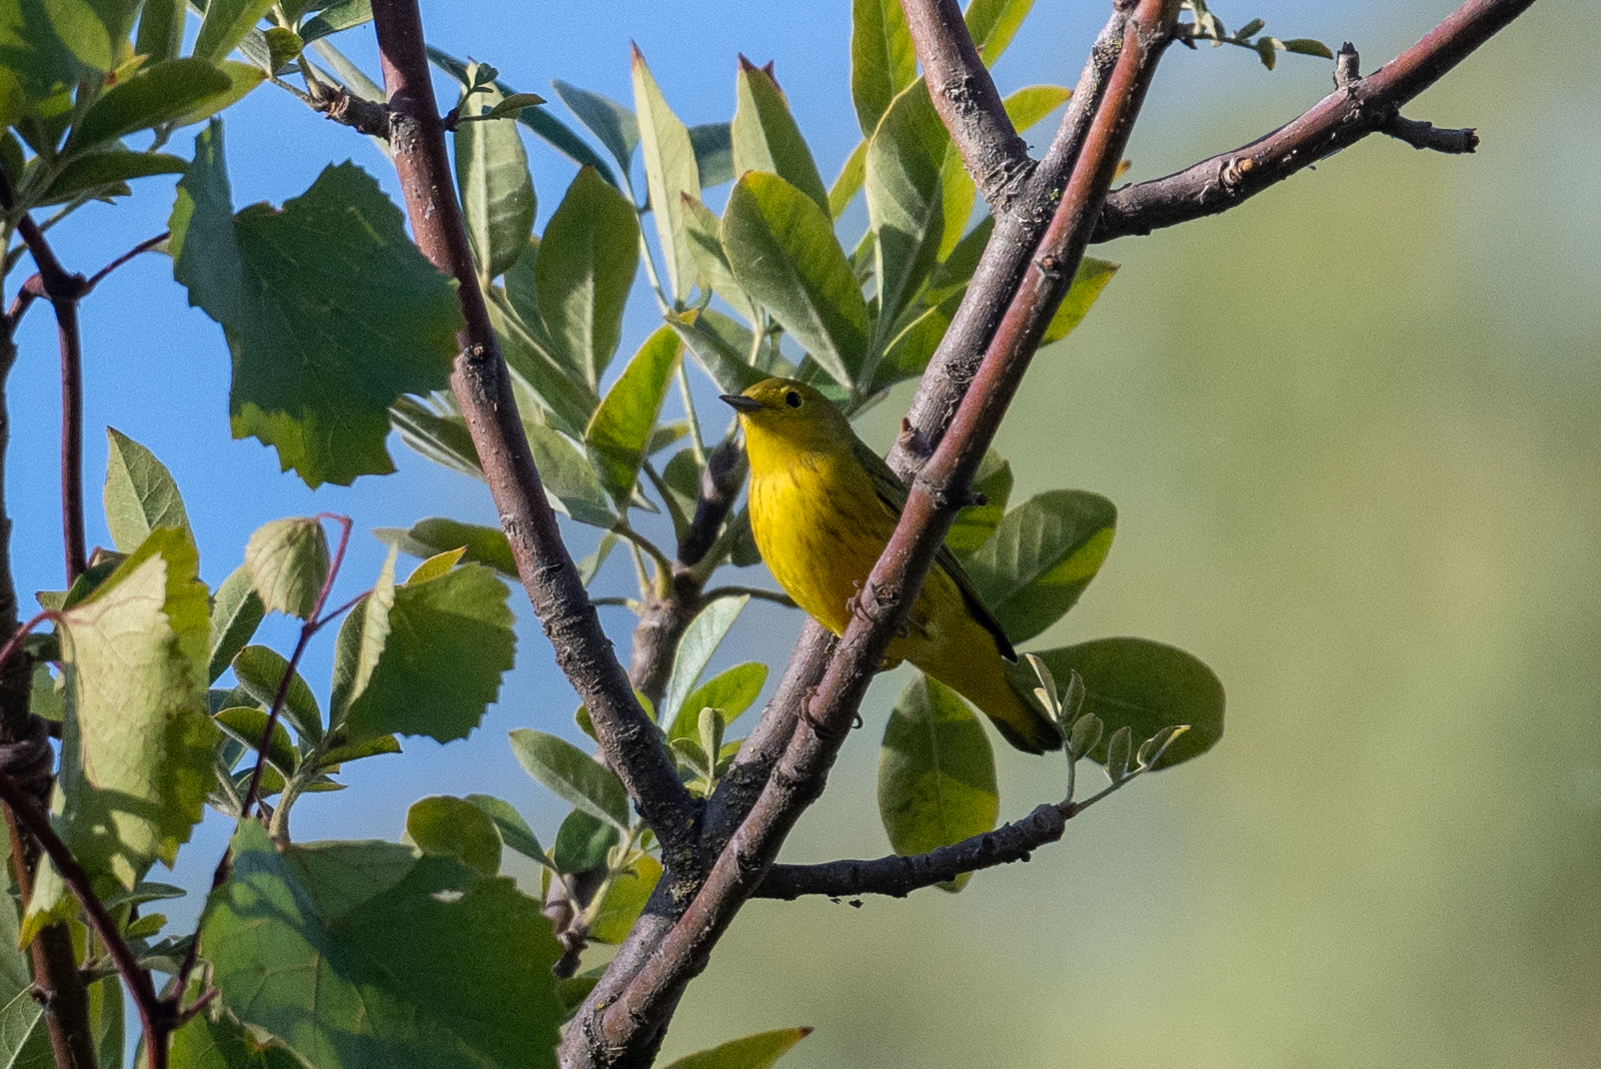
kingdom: Animalia
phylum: Chordata
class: Aves
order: Passeriformes
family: Parulidae
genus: Setophaga
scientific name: Setophaga petechia
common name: Yellow warbler
